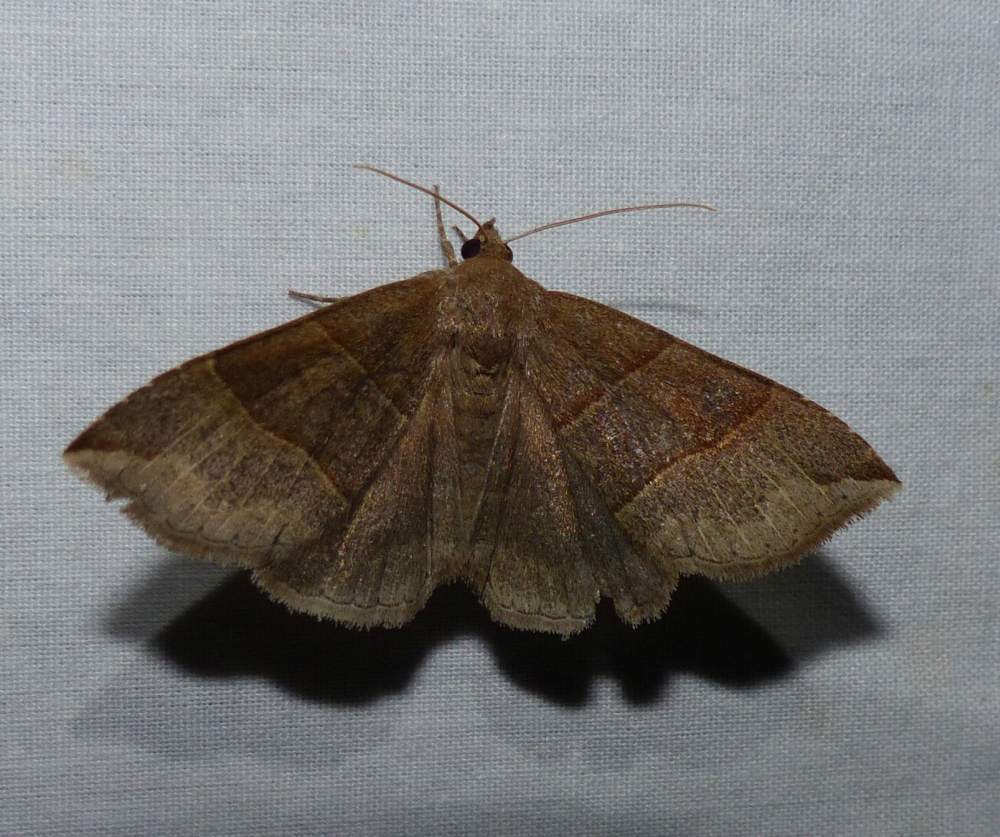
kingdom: Animalia
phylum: Arthropoda
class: Insecta
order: Lepidoptera
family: Erebidae
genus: Parallelia
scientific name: Parallelia bistriaris
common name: Maple looper moth
